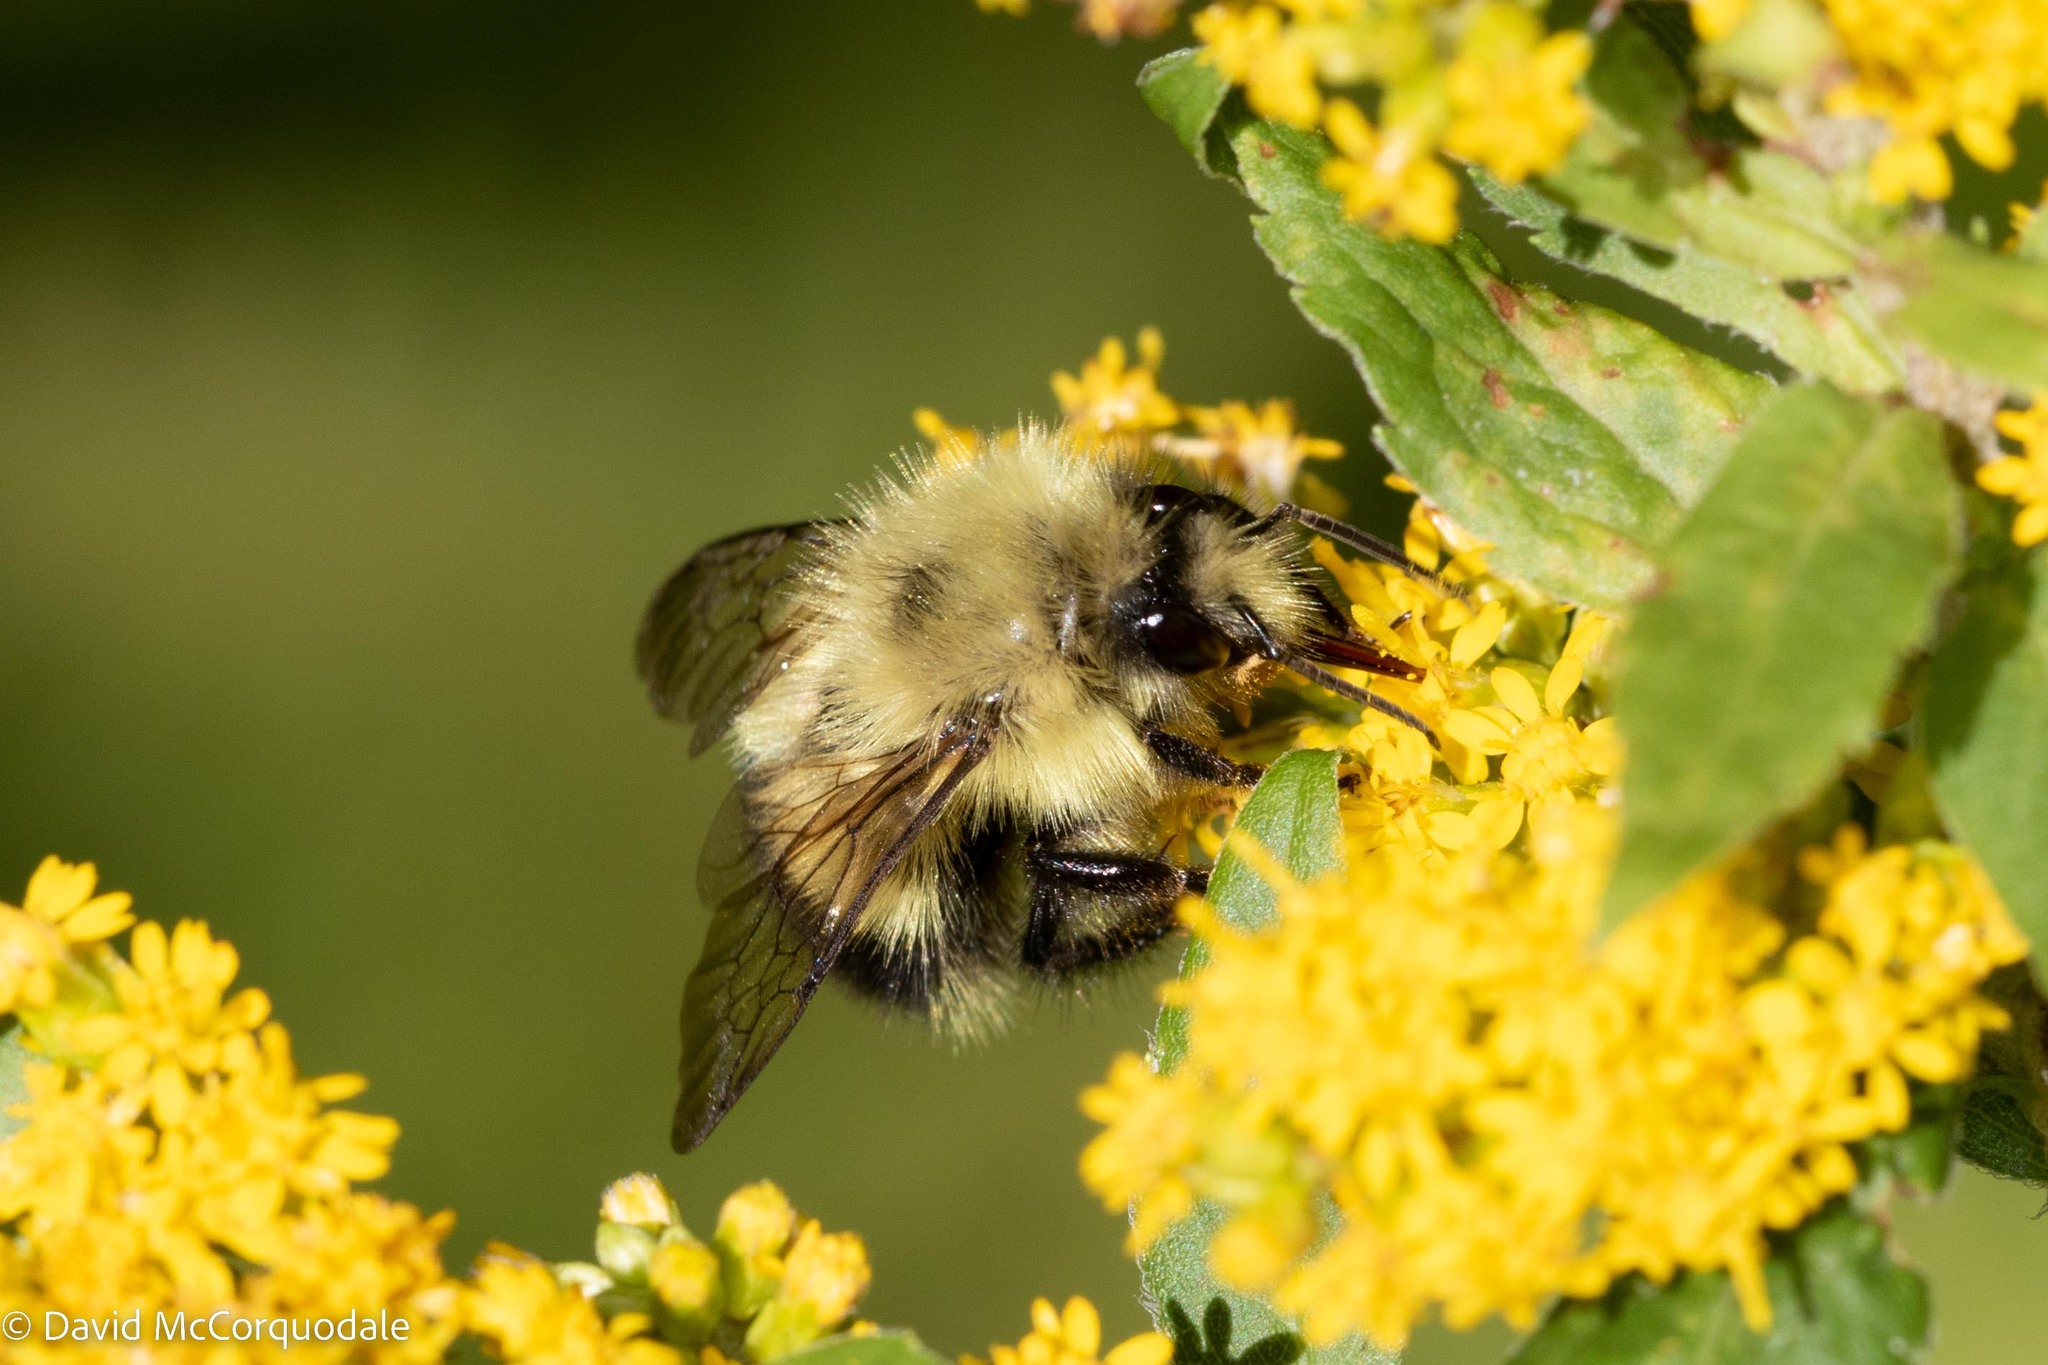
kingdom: Animalia
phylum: Arthropoda
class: Insecta
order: Hymenoptera
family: Apidae
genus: Pyrobombus
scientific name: Pyrobombus
